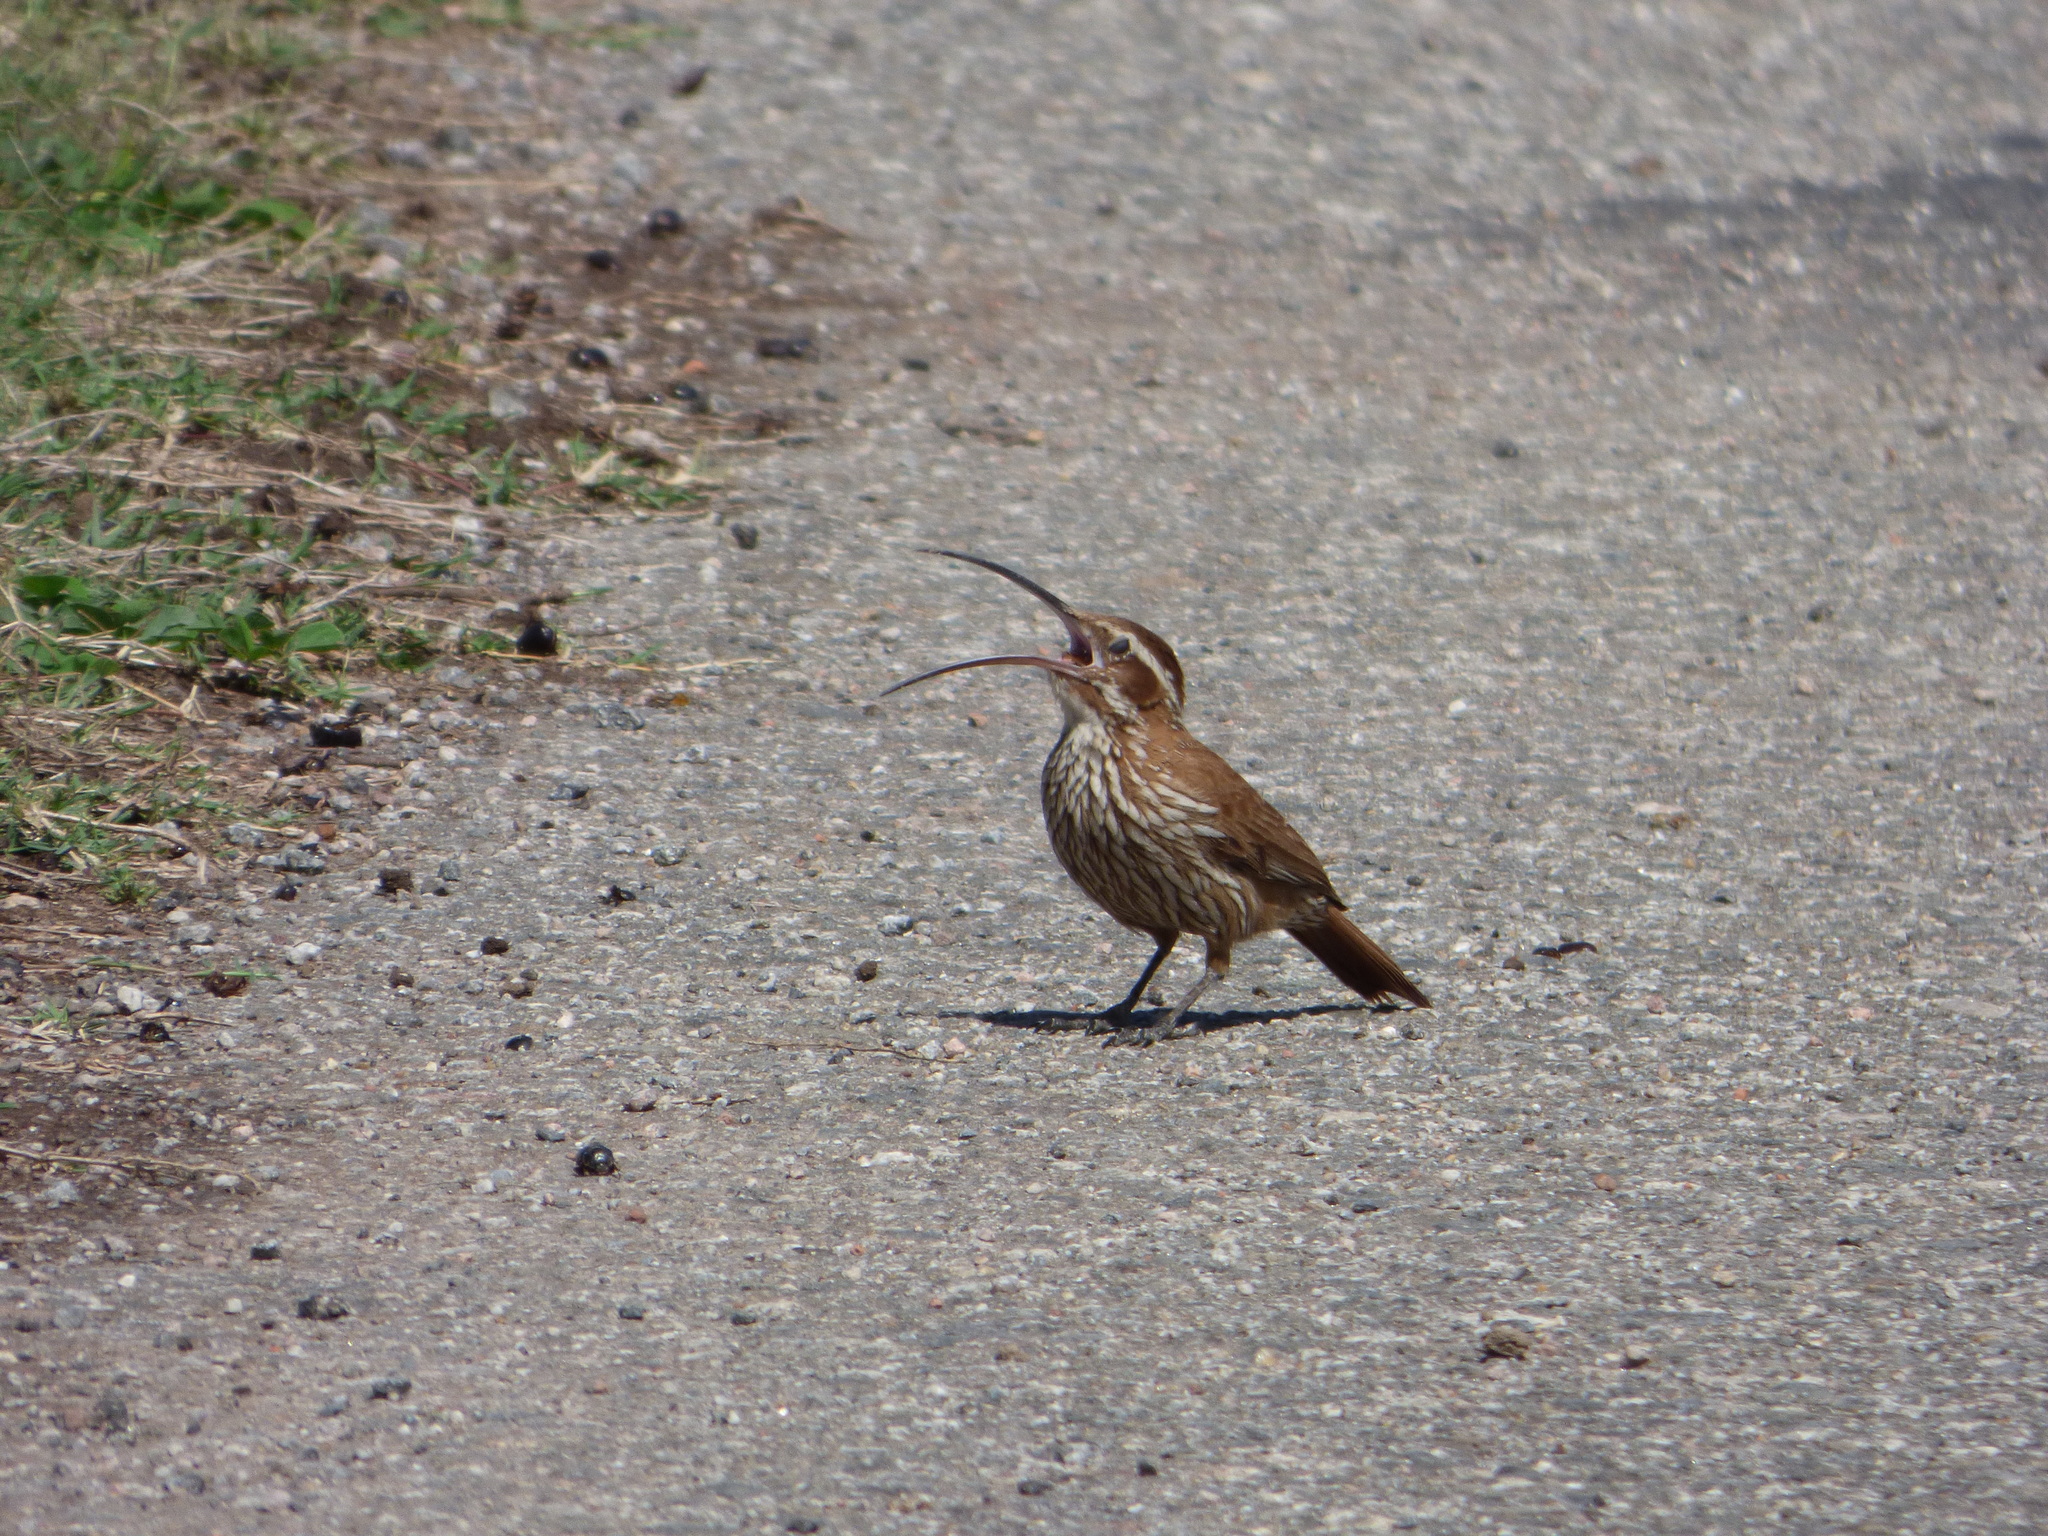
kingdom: Animalia
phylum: Chordata
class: Aves
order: Passeriformes
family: Furnariidae
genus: Drymornis
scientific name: Drymornis bridgesii
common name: Scimitar-billed woodcreeper
